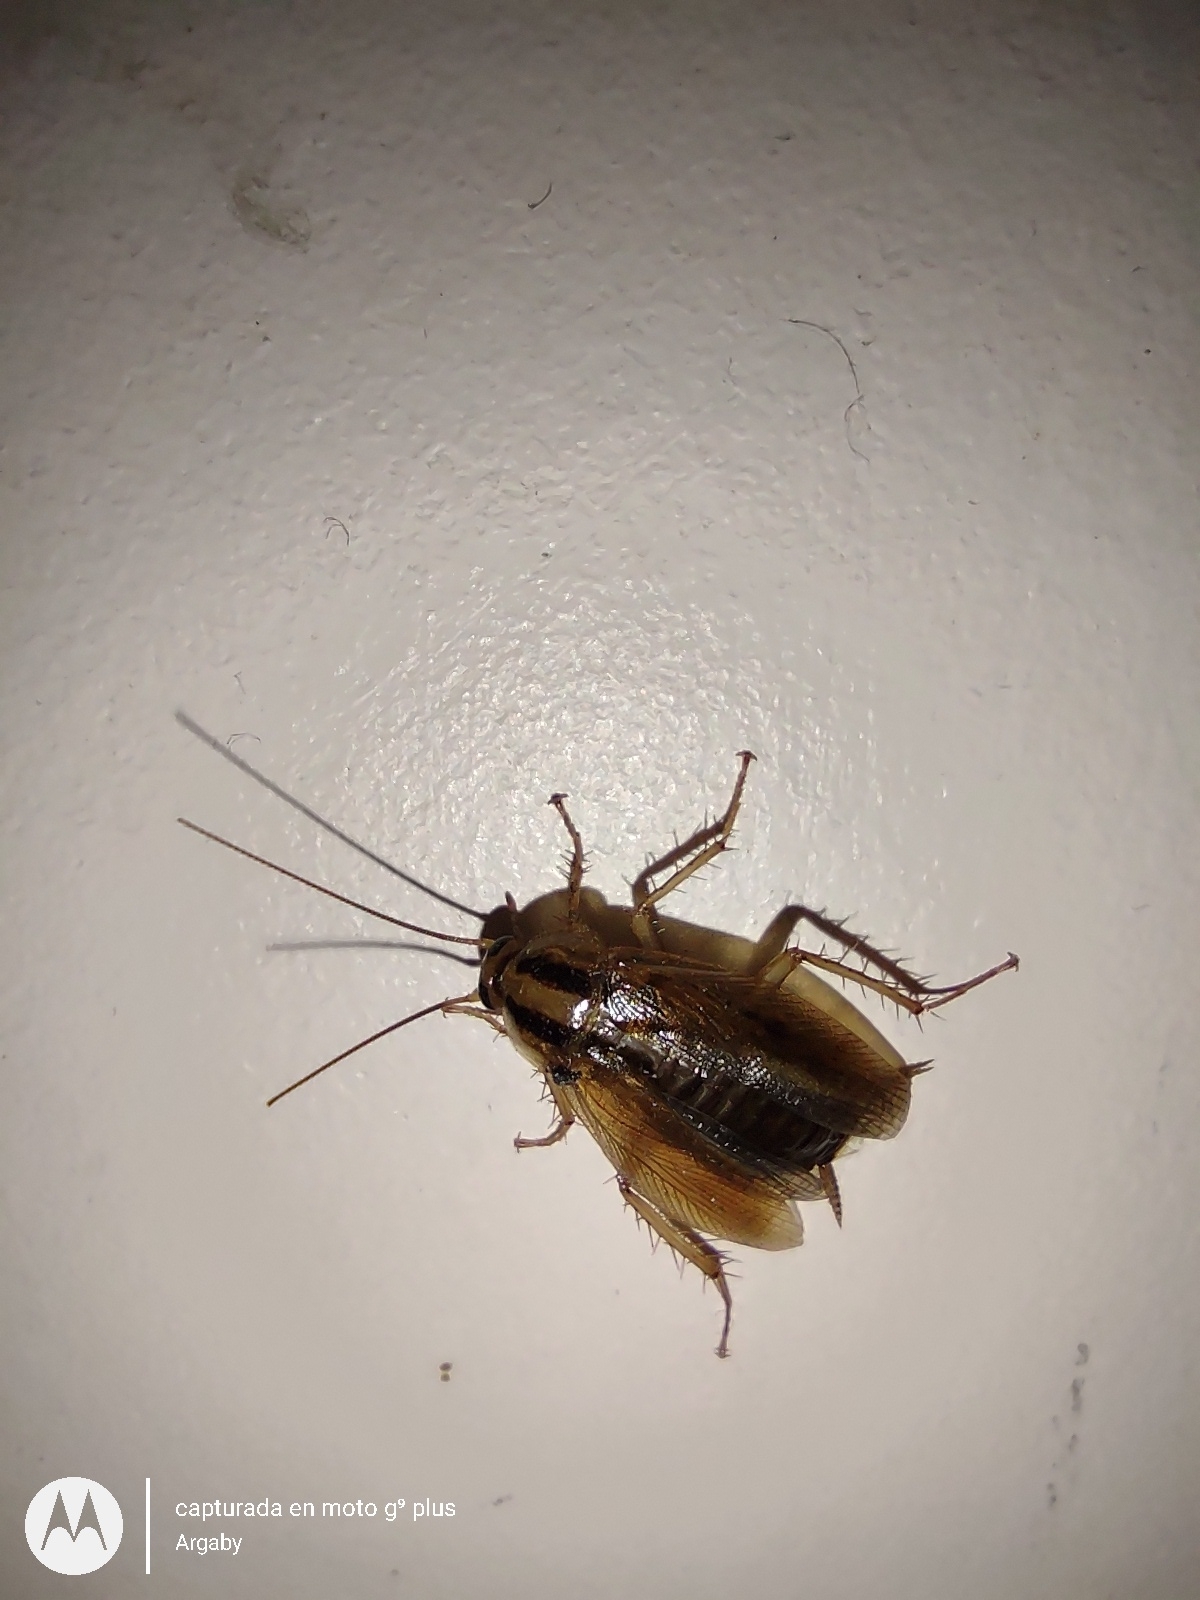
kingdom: Animalia
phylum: Arthropoda
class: Insecta
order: Blattodea
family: Ectobiidae
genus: Blattella
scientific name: Blattella germanica
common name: German cockroach
